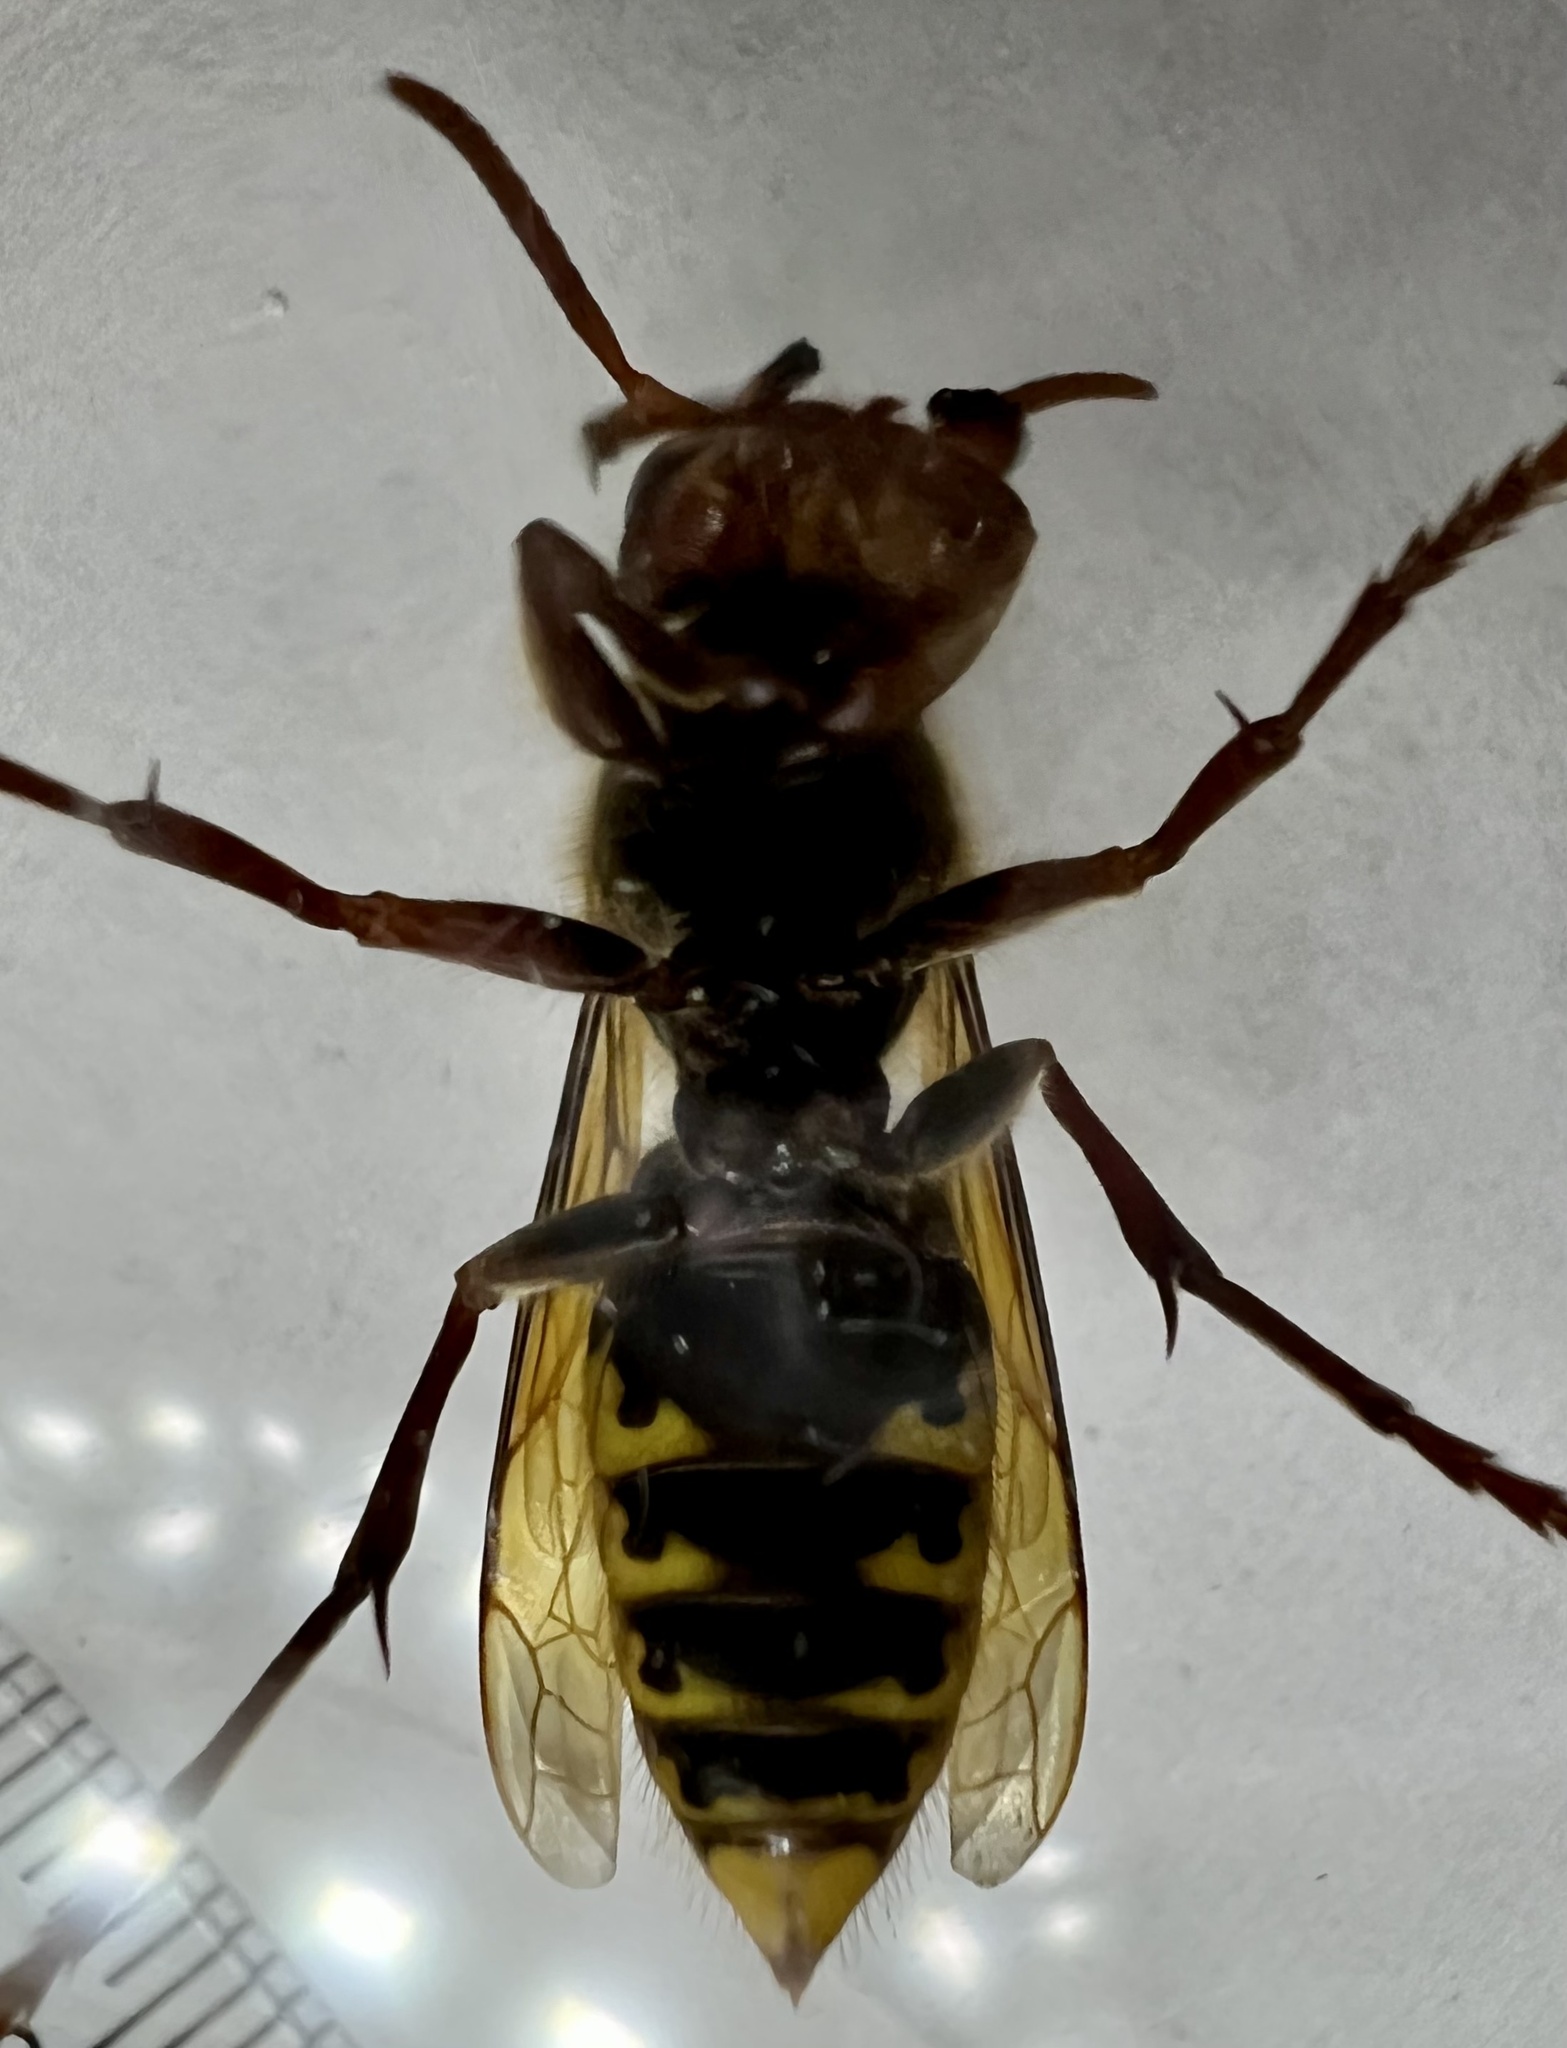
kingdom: Animalia
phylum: Arthropoda
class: Insecta
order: Hymenoptera
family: Vespidae
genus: Vespa
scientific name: Vespa crabro
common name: Hornet
